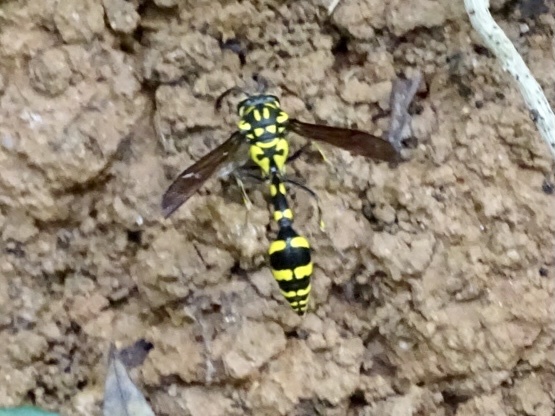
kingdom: Animalia
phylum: Arthropoda
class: Insecta
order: Hymenoptera
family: Eumenidae
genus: Phimenes
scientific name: Phimenes flavopictus
